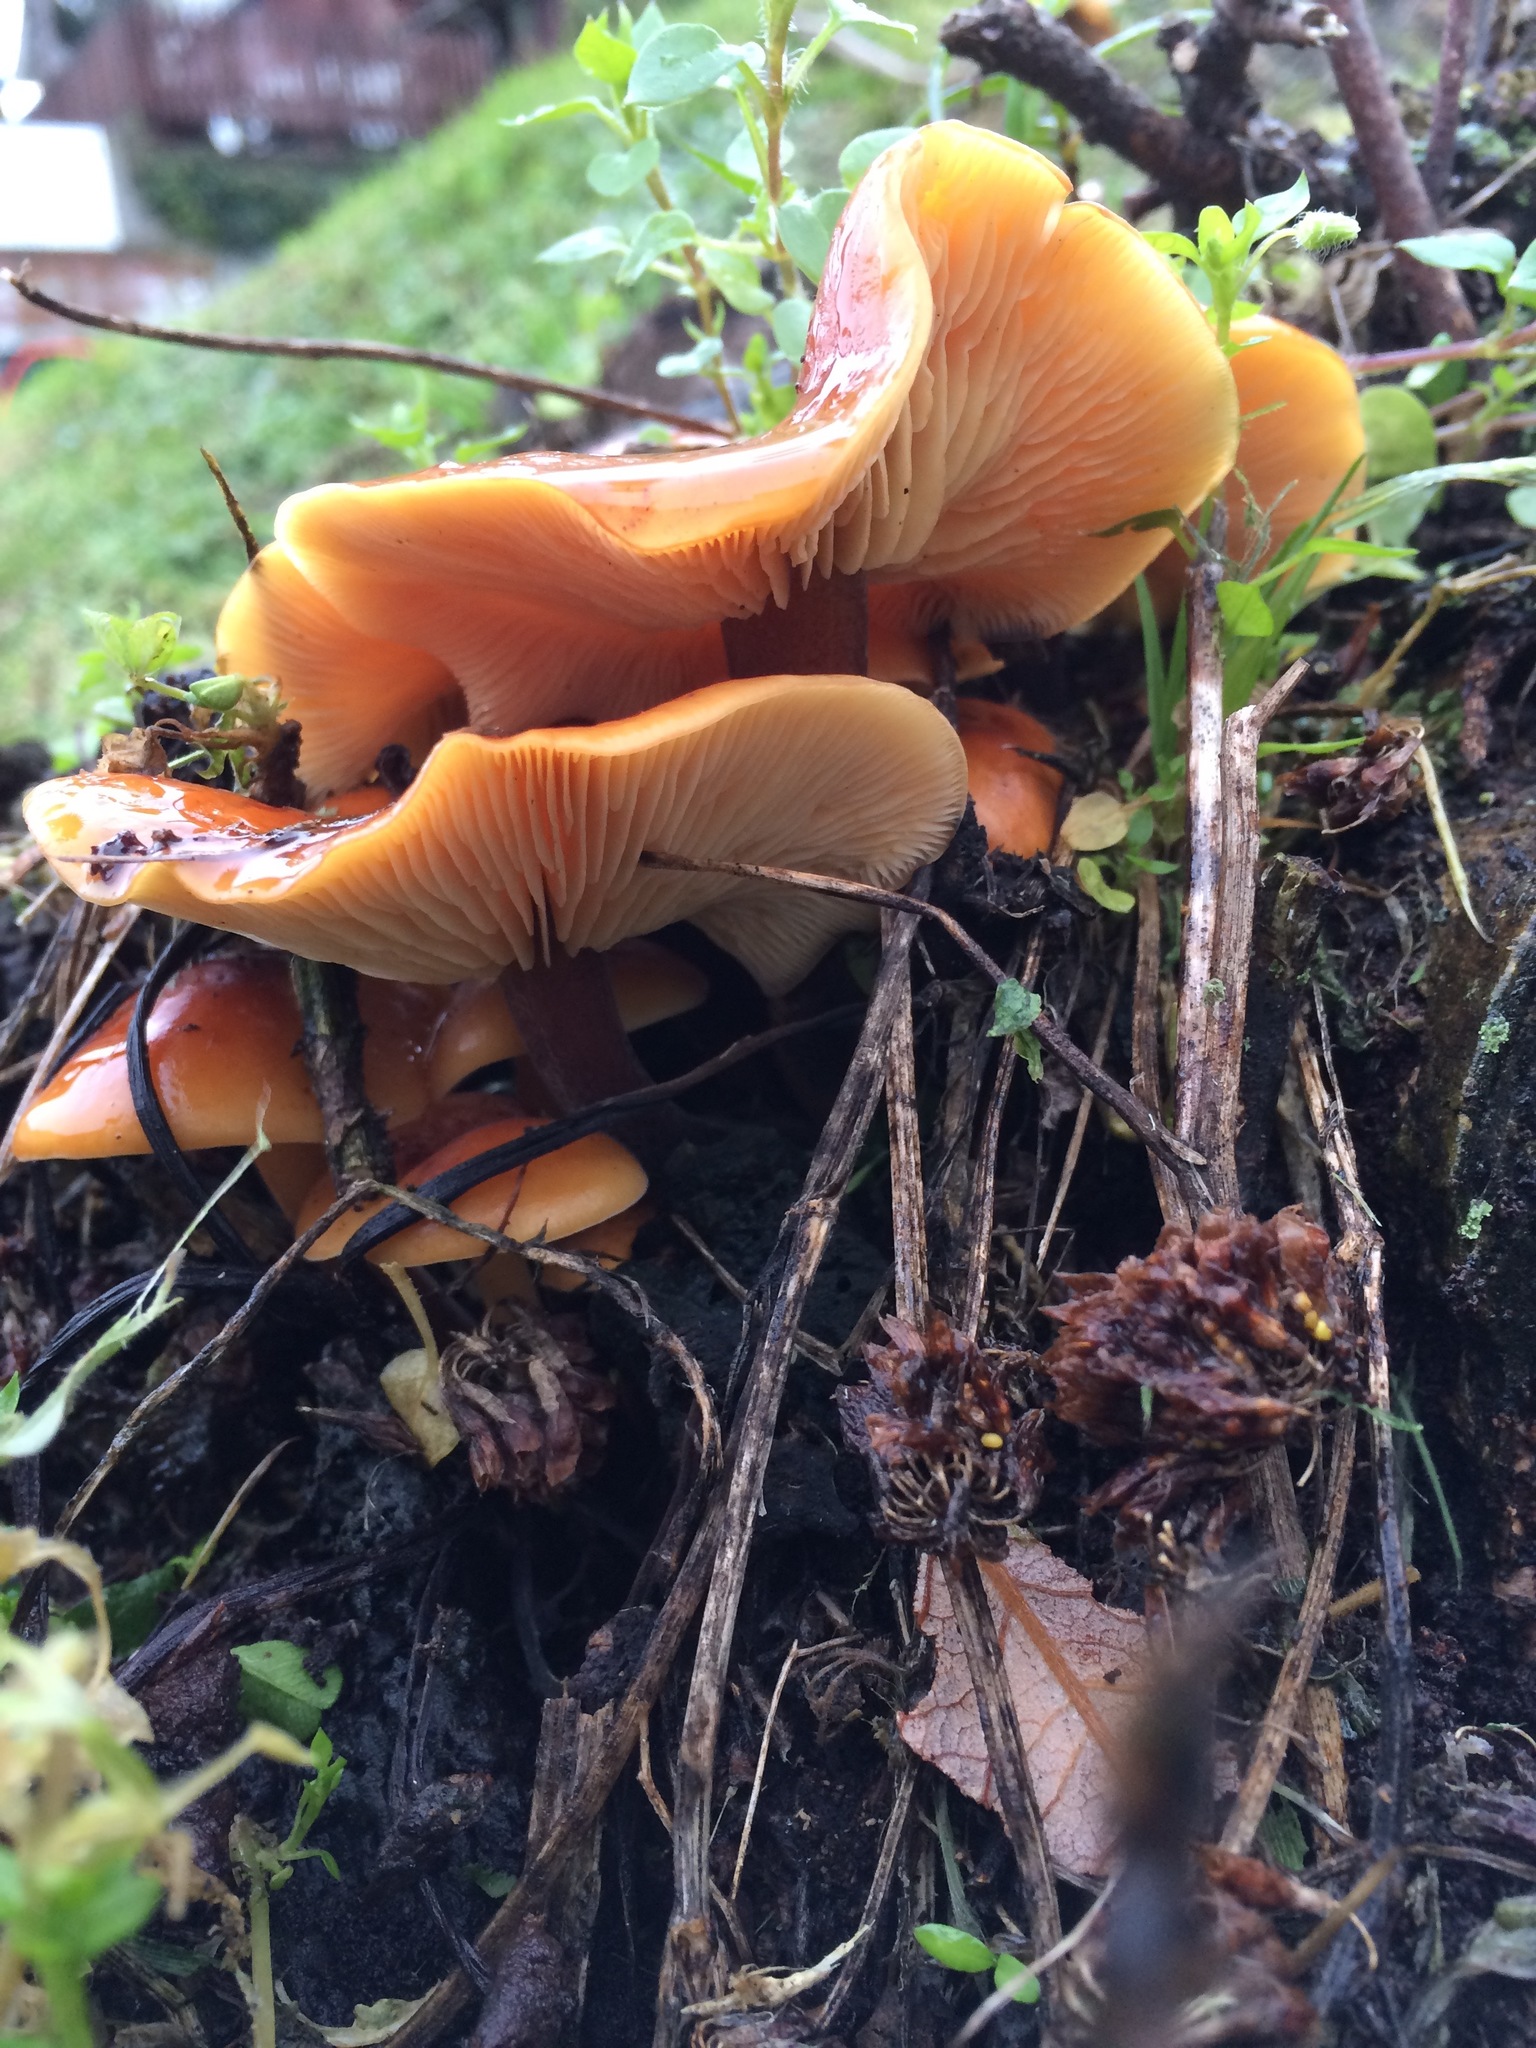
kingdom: Fungi
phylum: Basidiomycota
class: Agaricomycetes
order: Agaricales
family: Physalacriaceae
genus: Flammulina
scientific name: Flammulina velutipes
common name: Velvet shank
